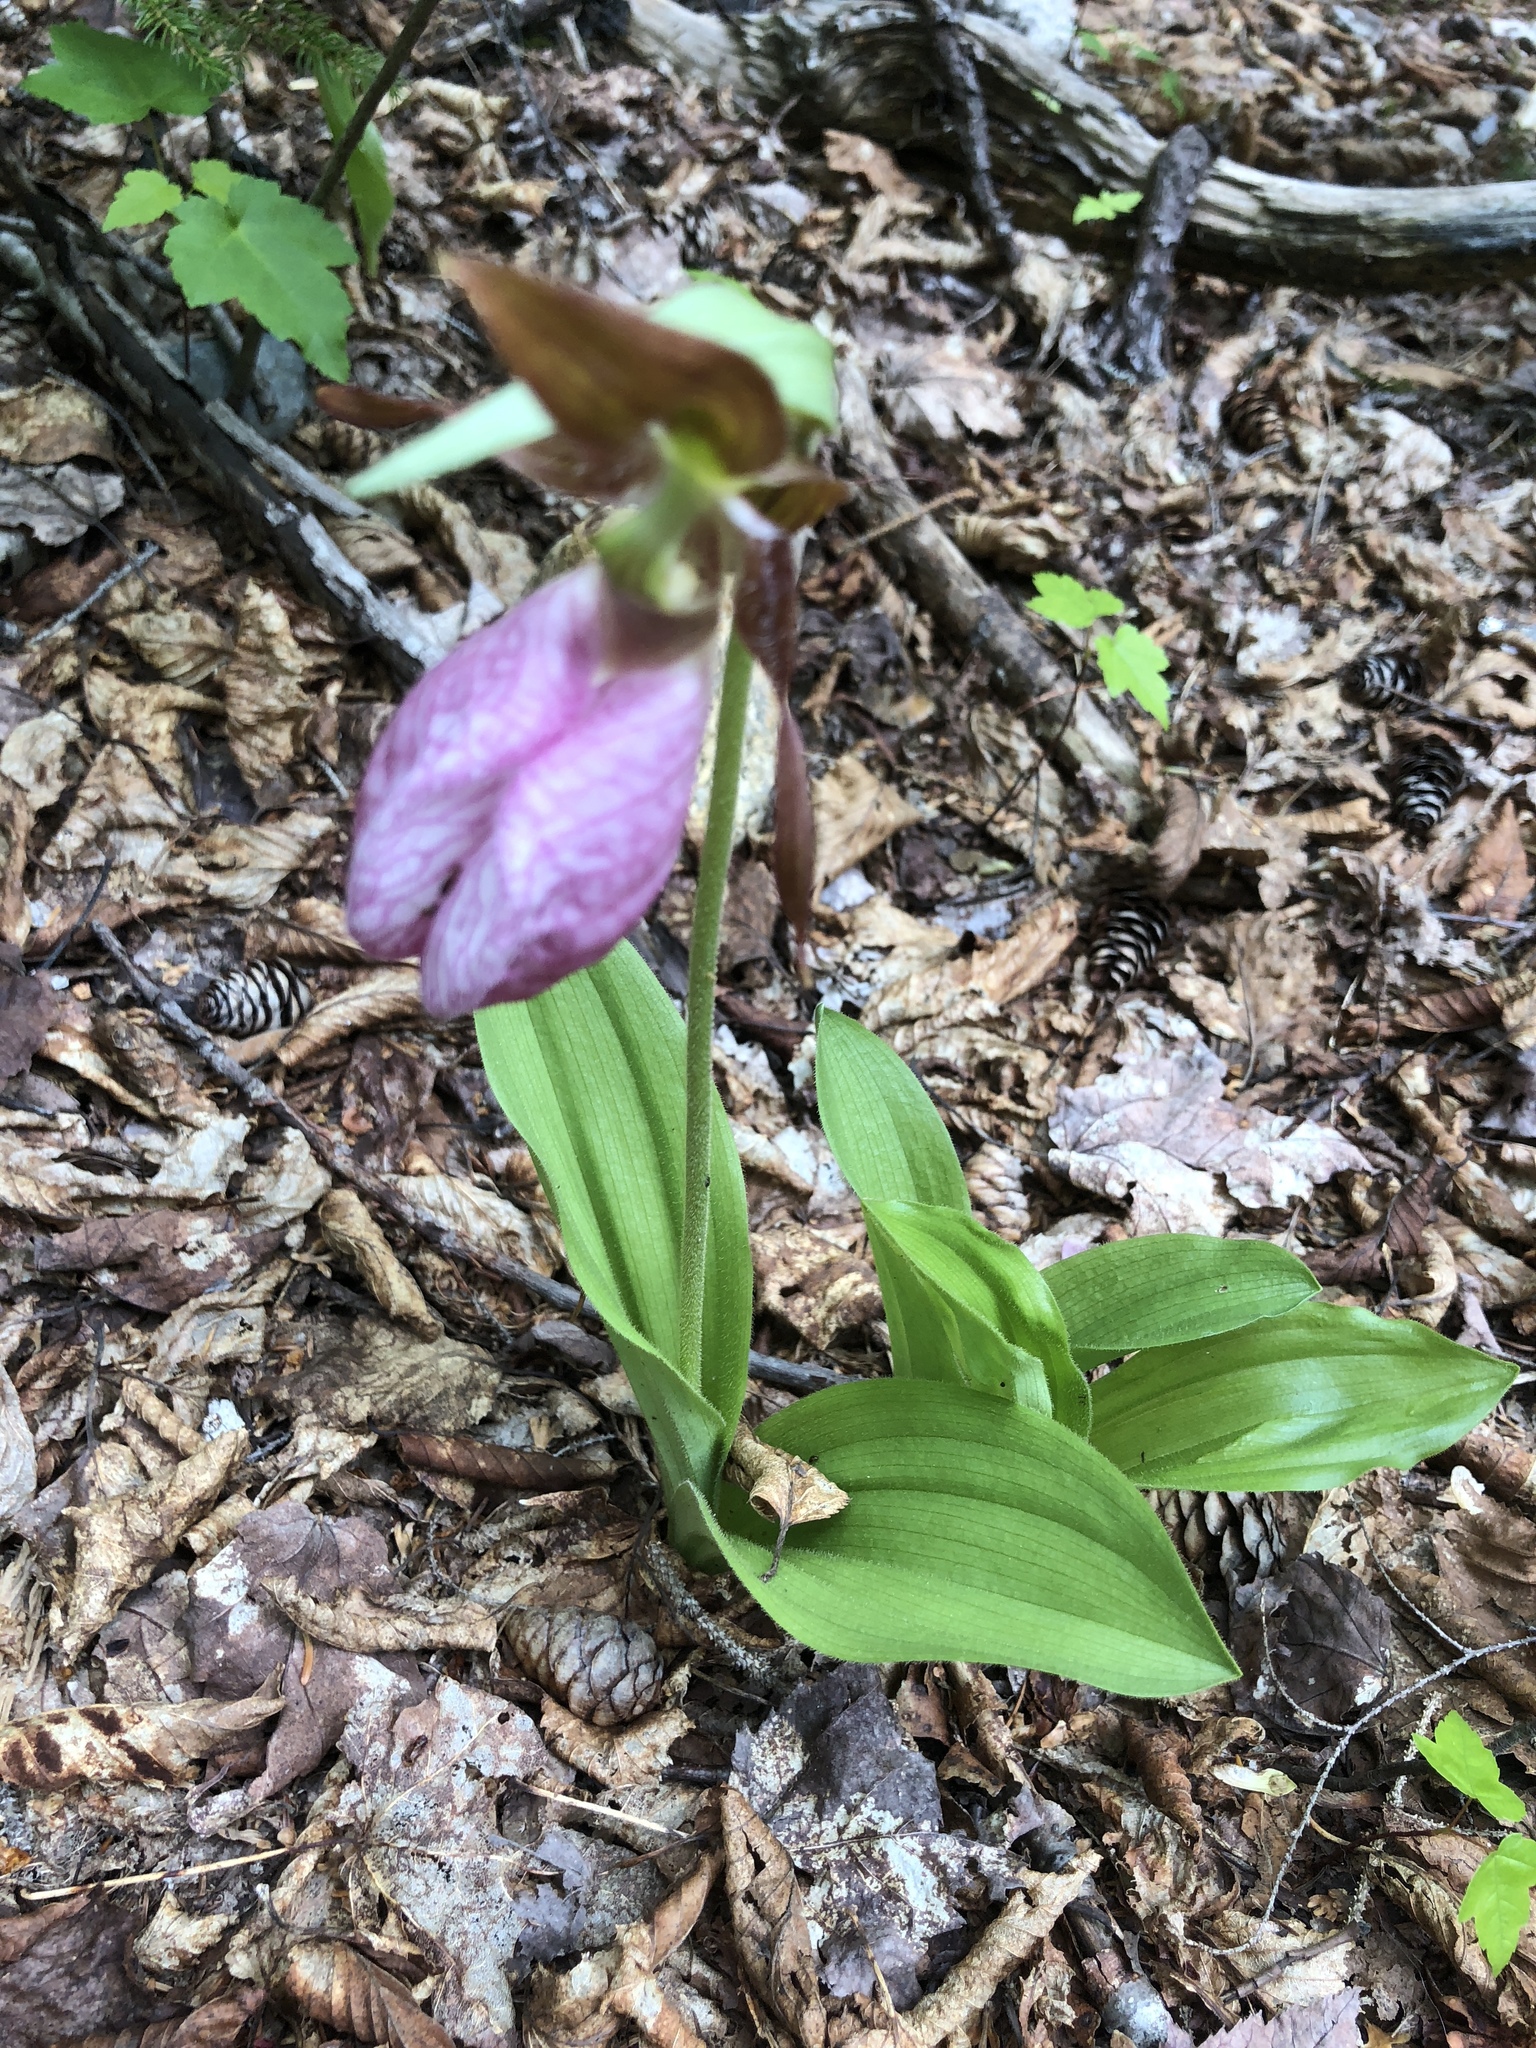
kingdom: Plantae
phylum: Tracheophyta
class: Liliopsida
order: Asparagales
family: Orchidaceae
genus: Cypripedium
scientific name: Cypripedium acaule
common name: Pink lady's-slipper
